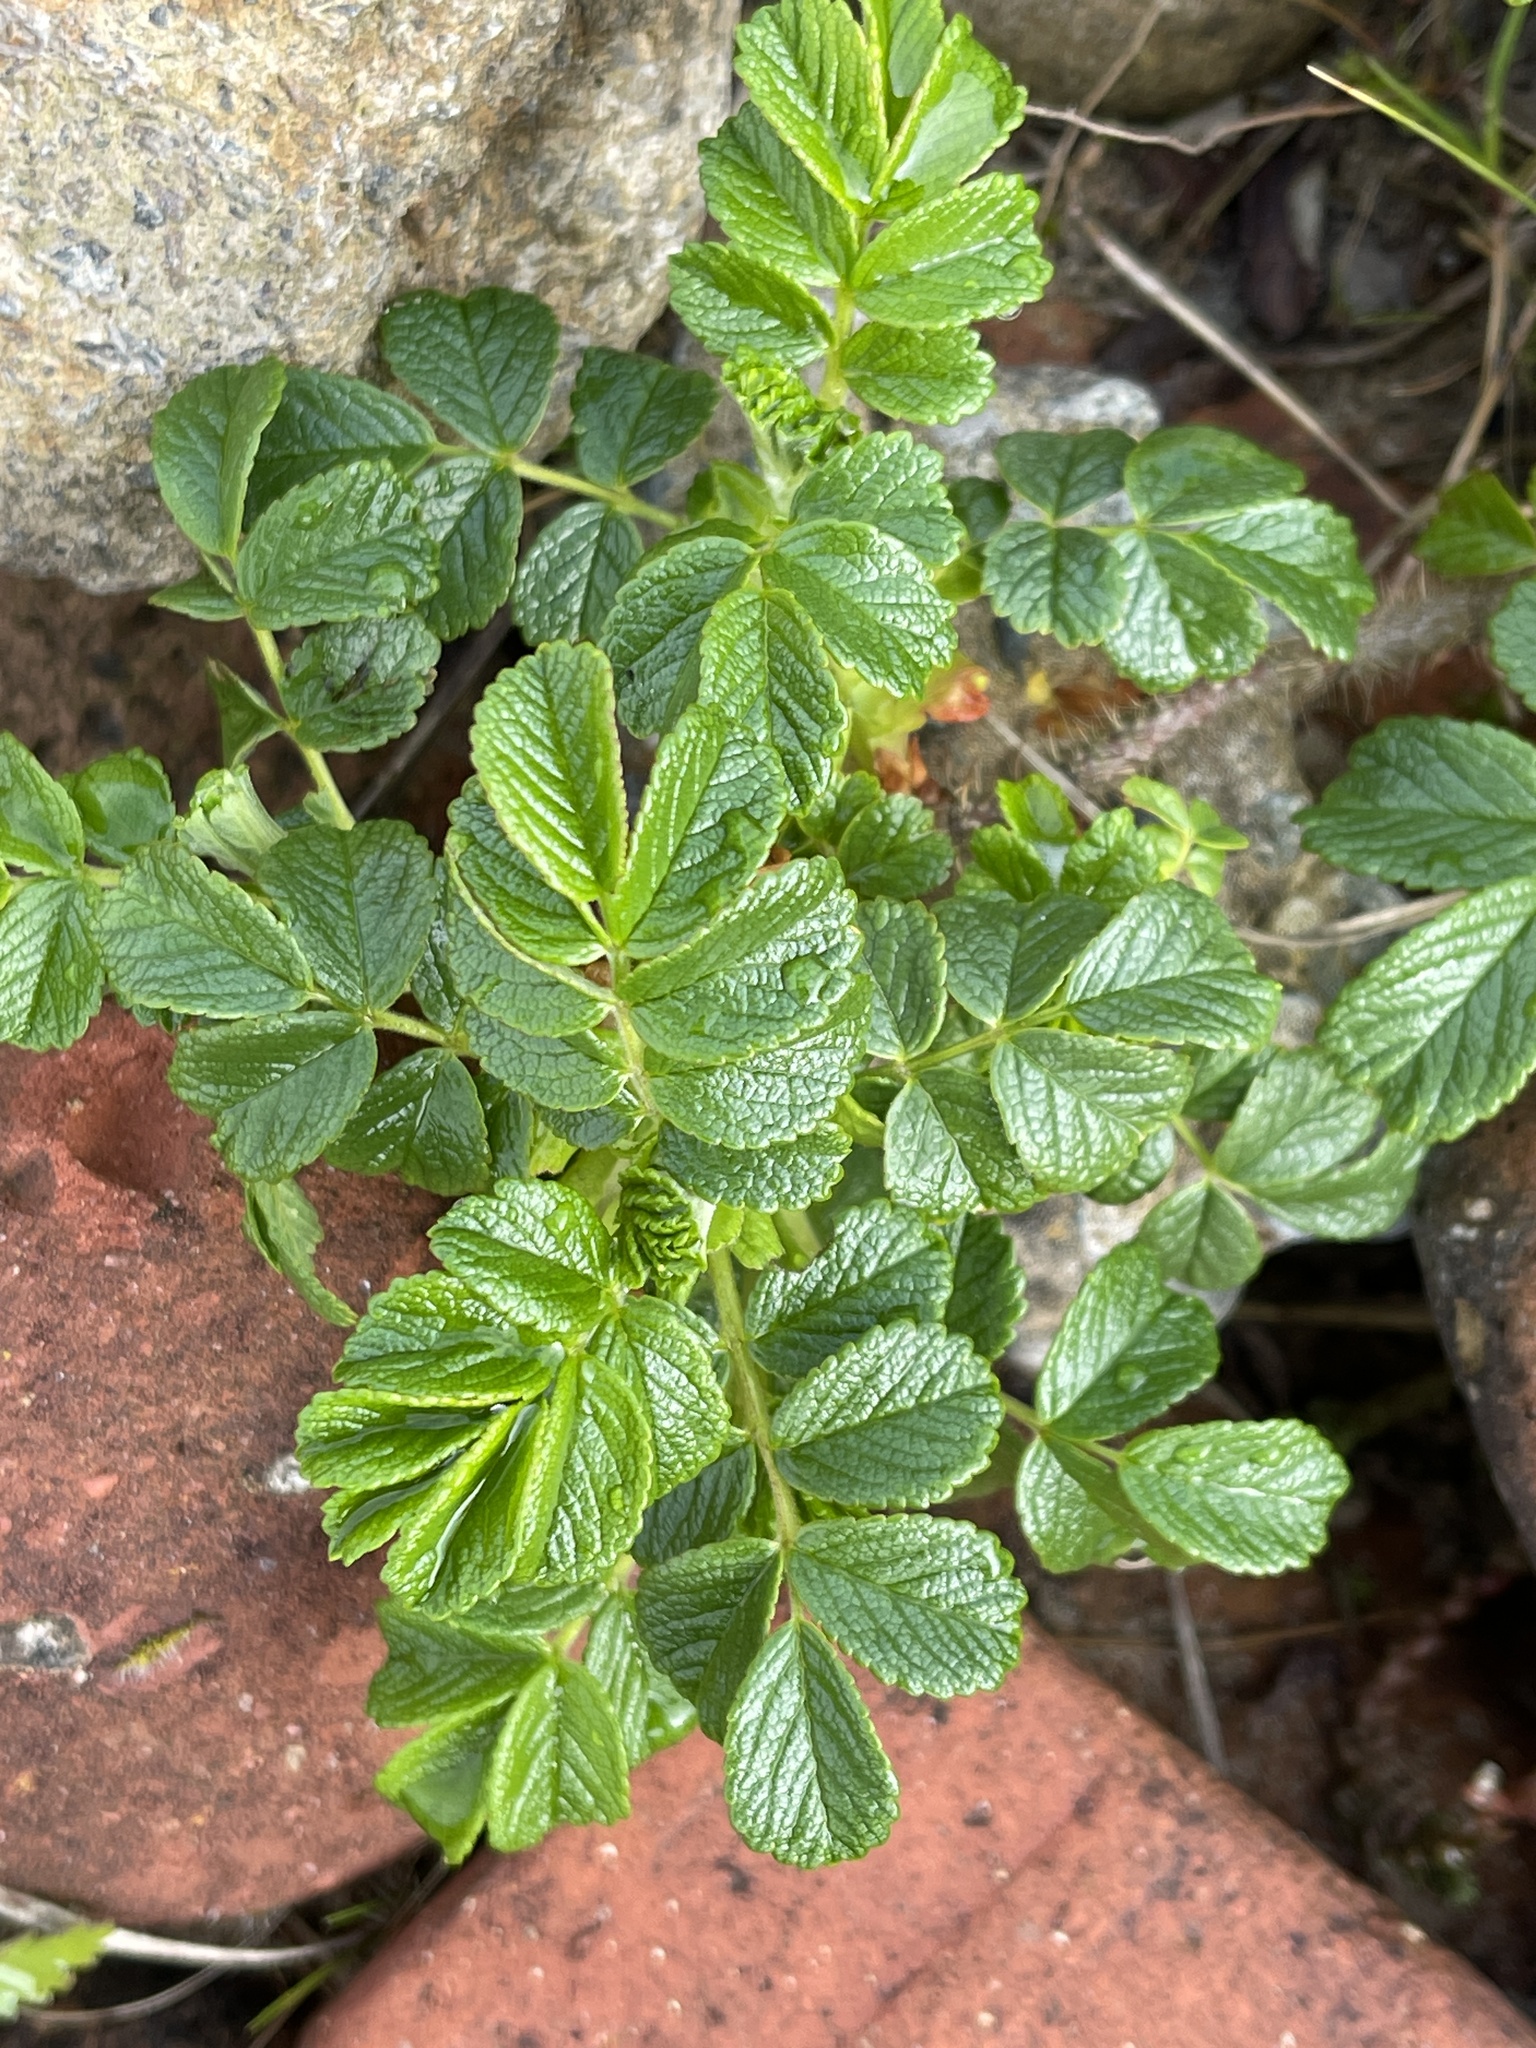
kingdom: Plantae
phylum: Tracheophyta
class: Magnoliopsida
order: Rosales
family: Rosaceae
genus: Rosa
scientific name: Rosa rugosa
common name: Japanese rose
